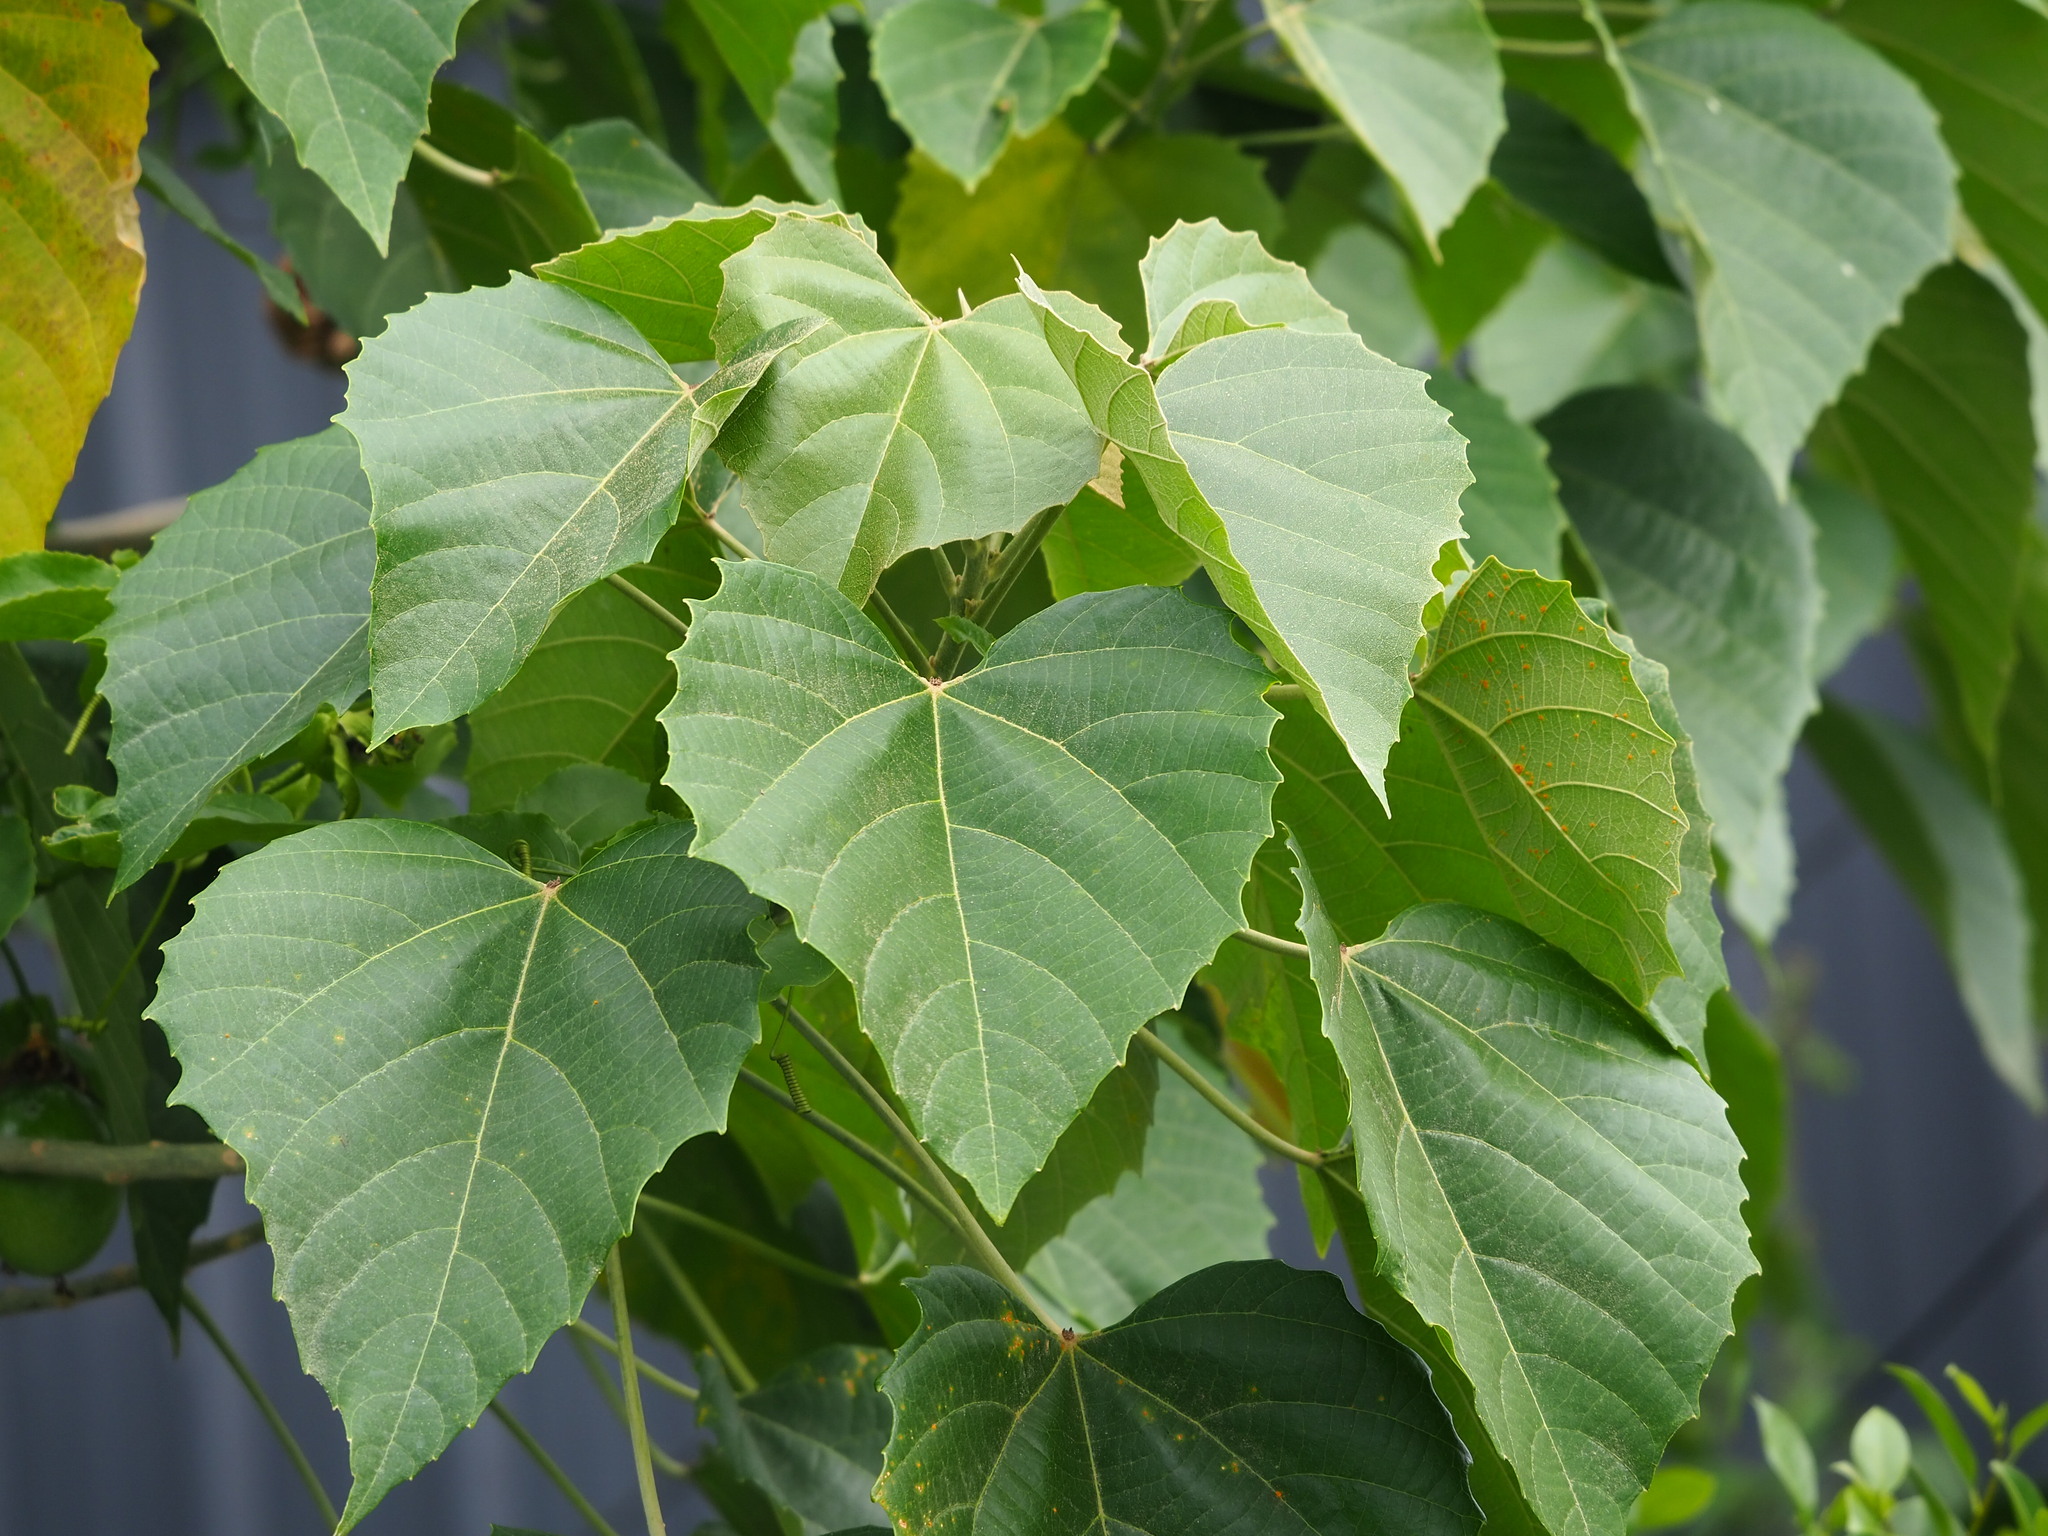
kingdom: Plantae
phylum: Tracheophyta
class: Magnoliopsida
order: Malpighiales
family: Euphorbiaceae
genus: Melanolepis
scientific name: Melanolepis multiglandulosa
